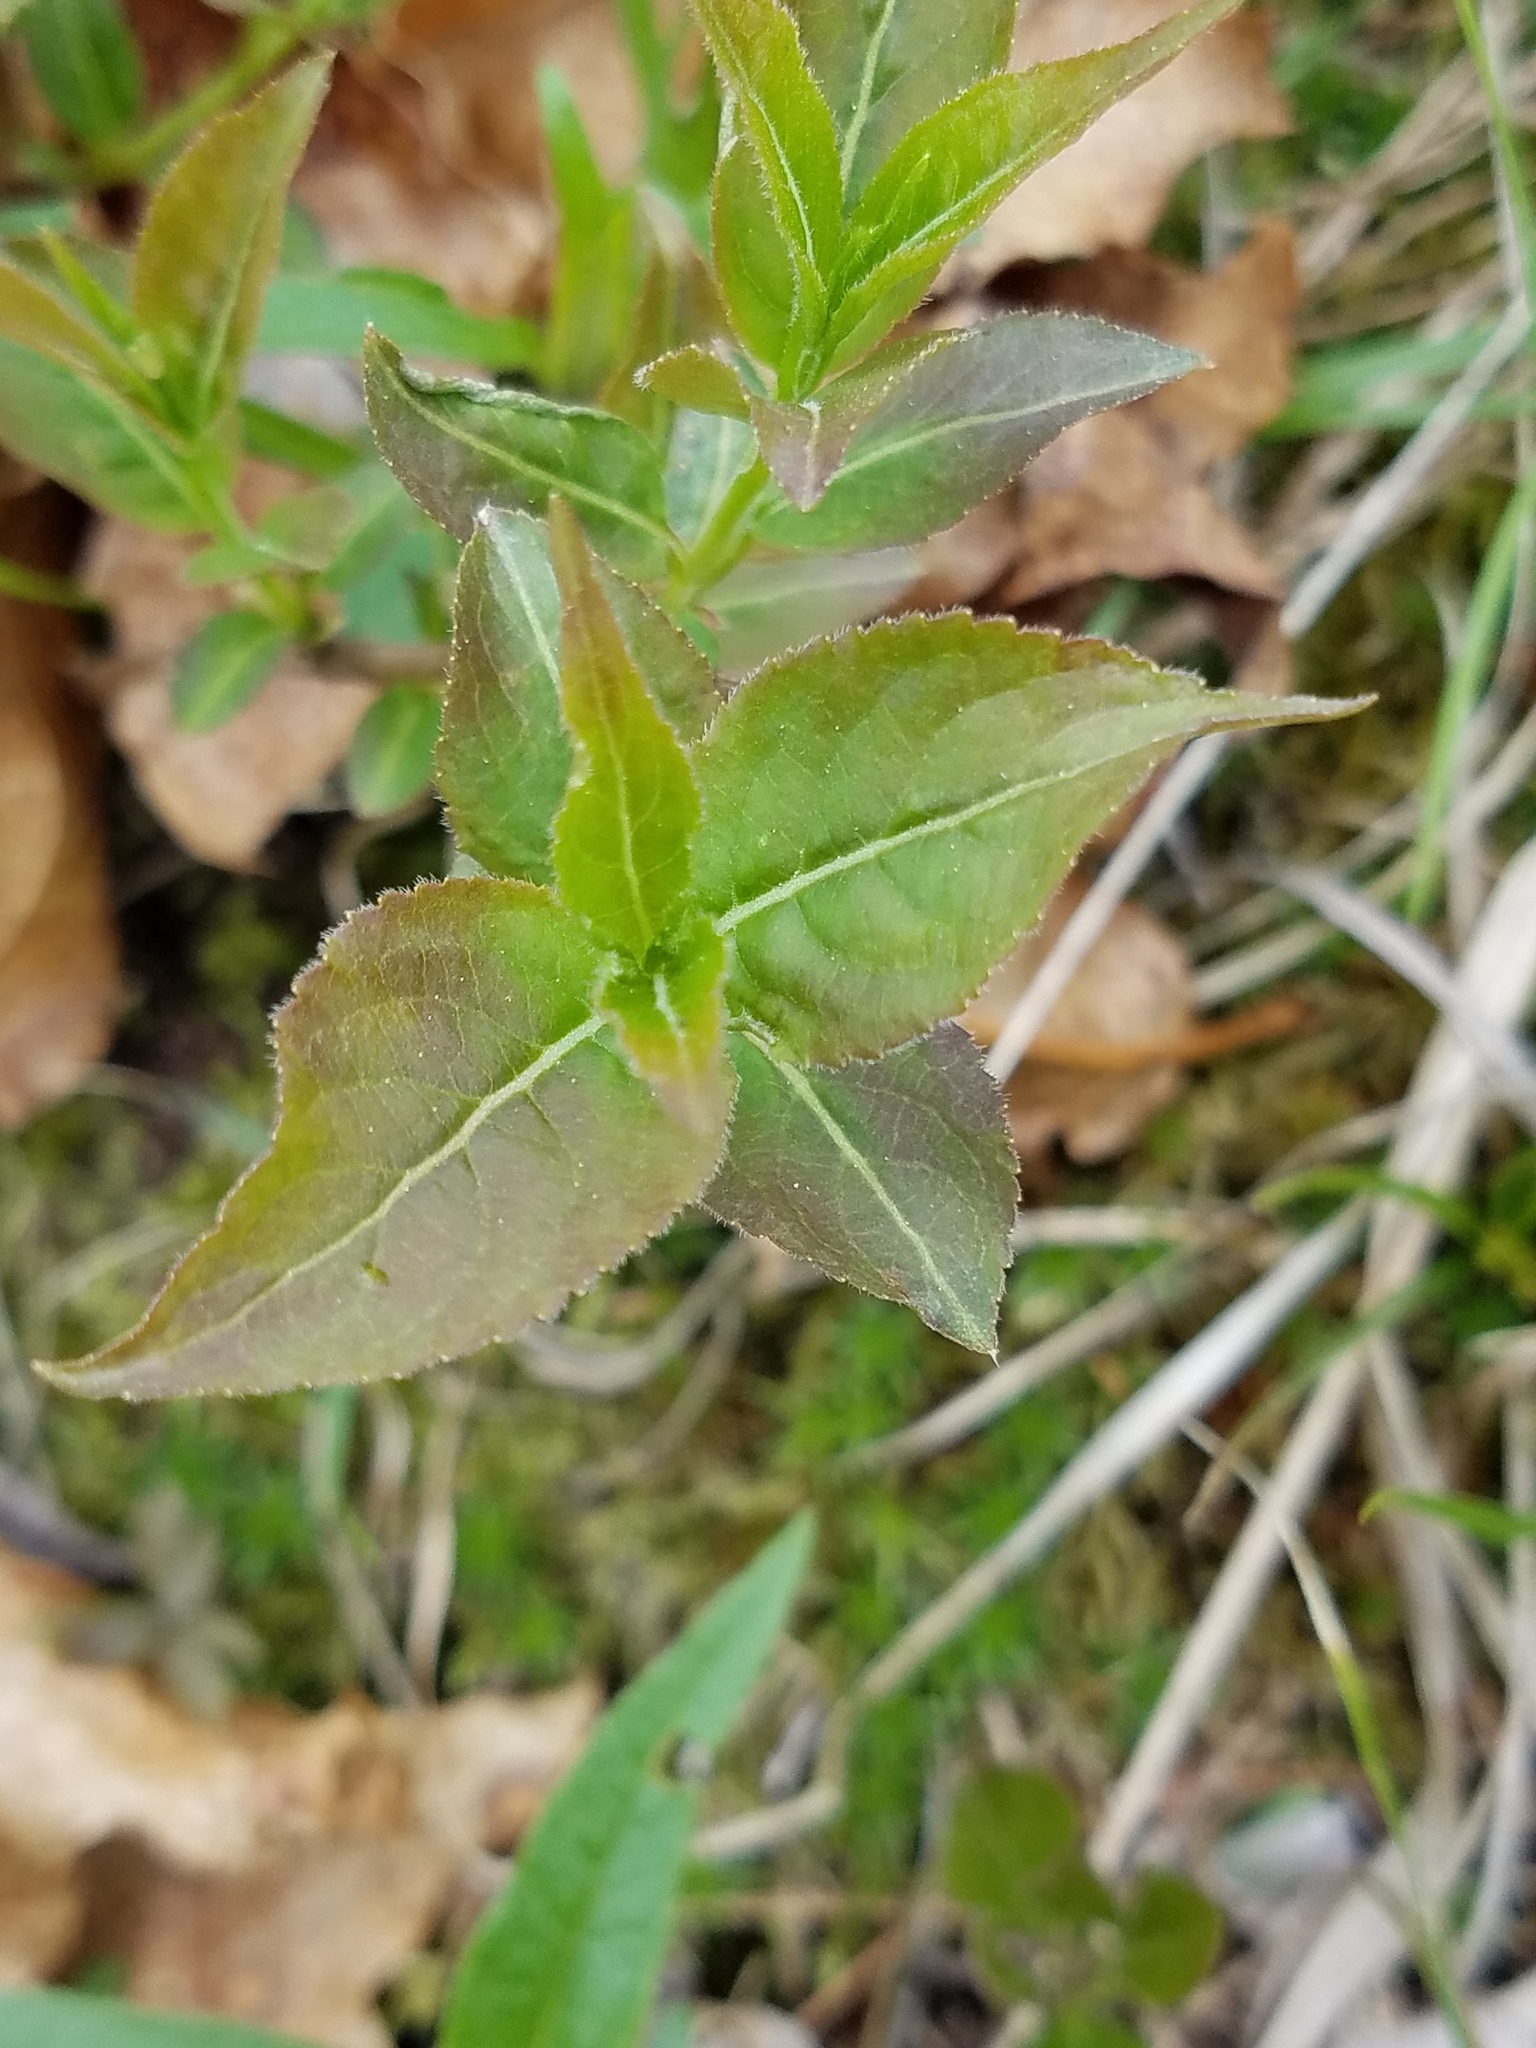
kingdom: Plantae
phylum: Tracheophyta
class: Magnoliopsida
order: Dipsacales
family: Caprifoliaceae
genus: Diervilla
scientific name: Diervilla lonicera
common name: Bush-honeysuckle
